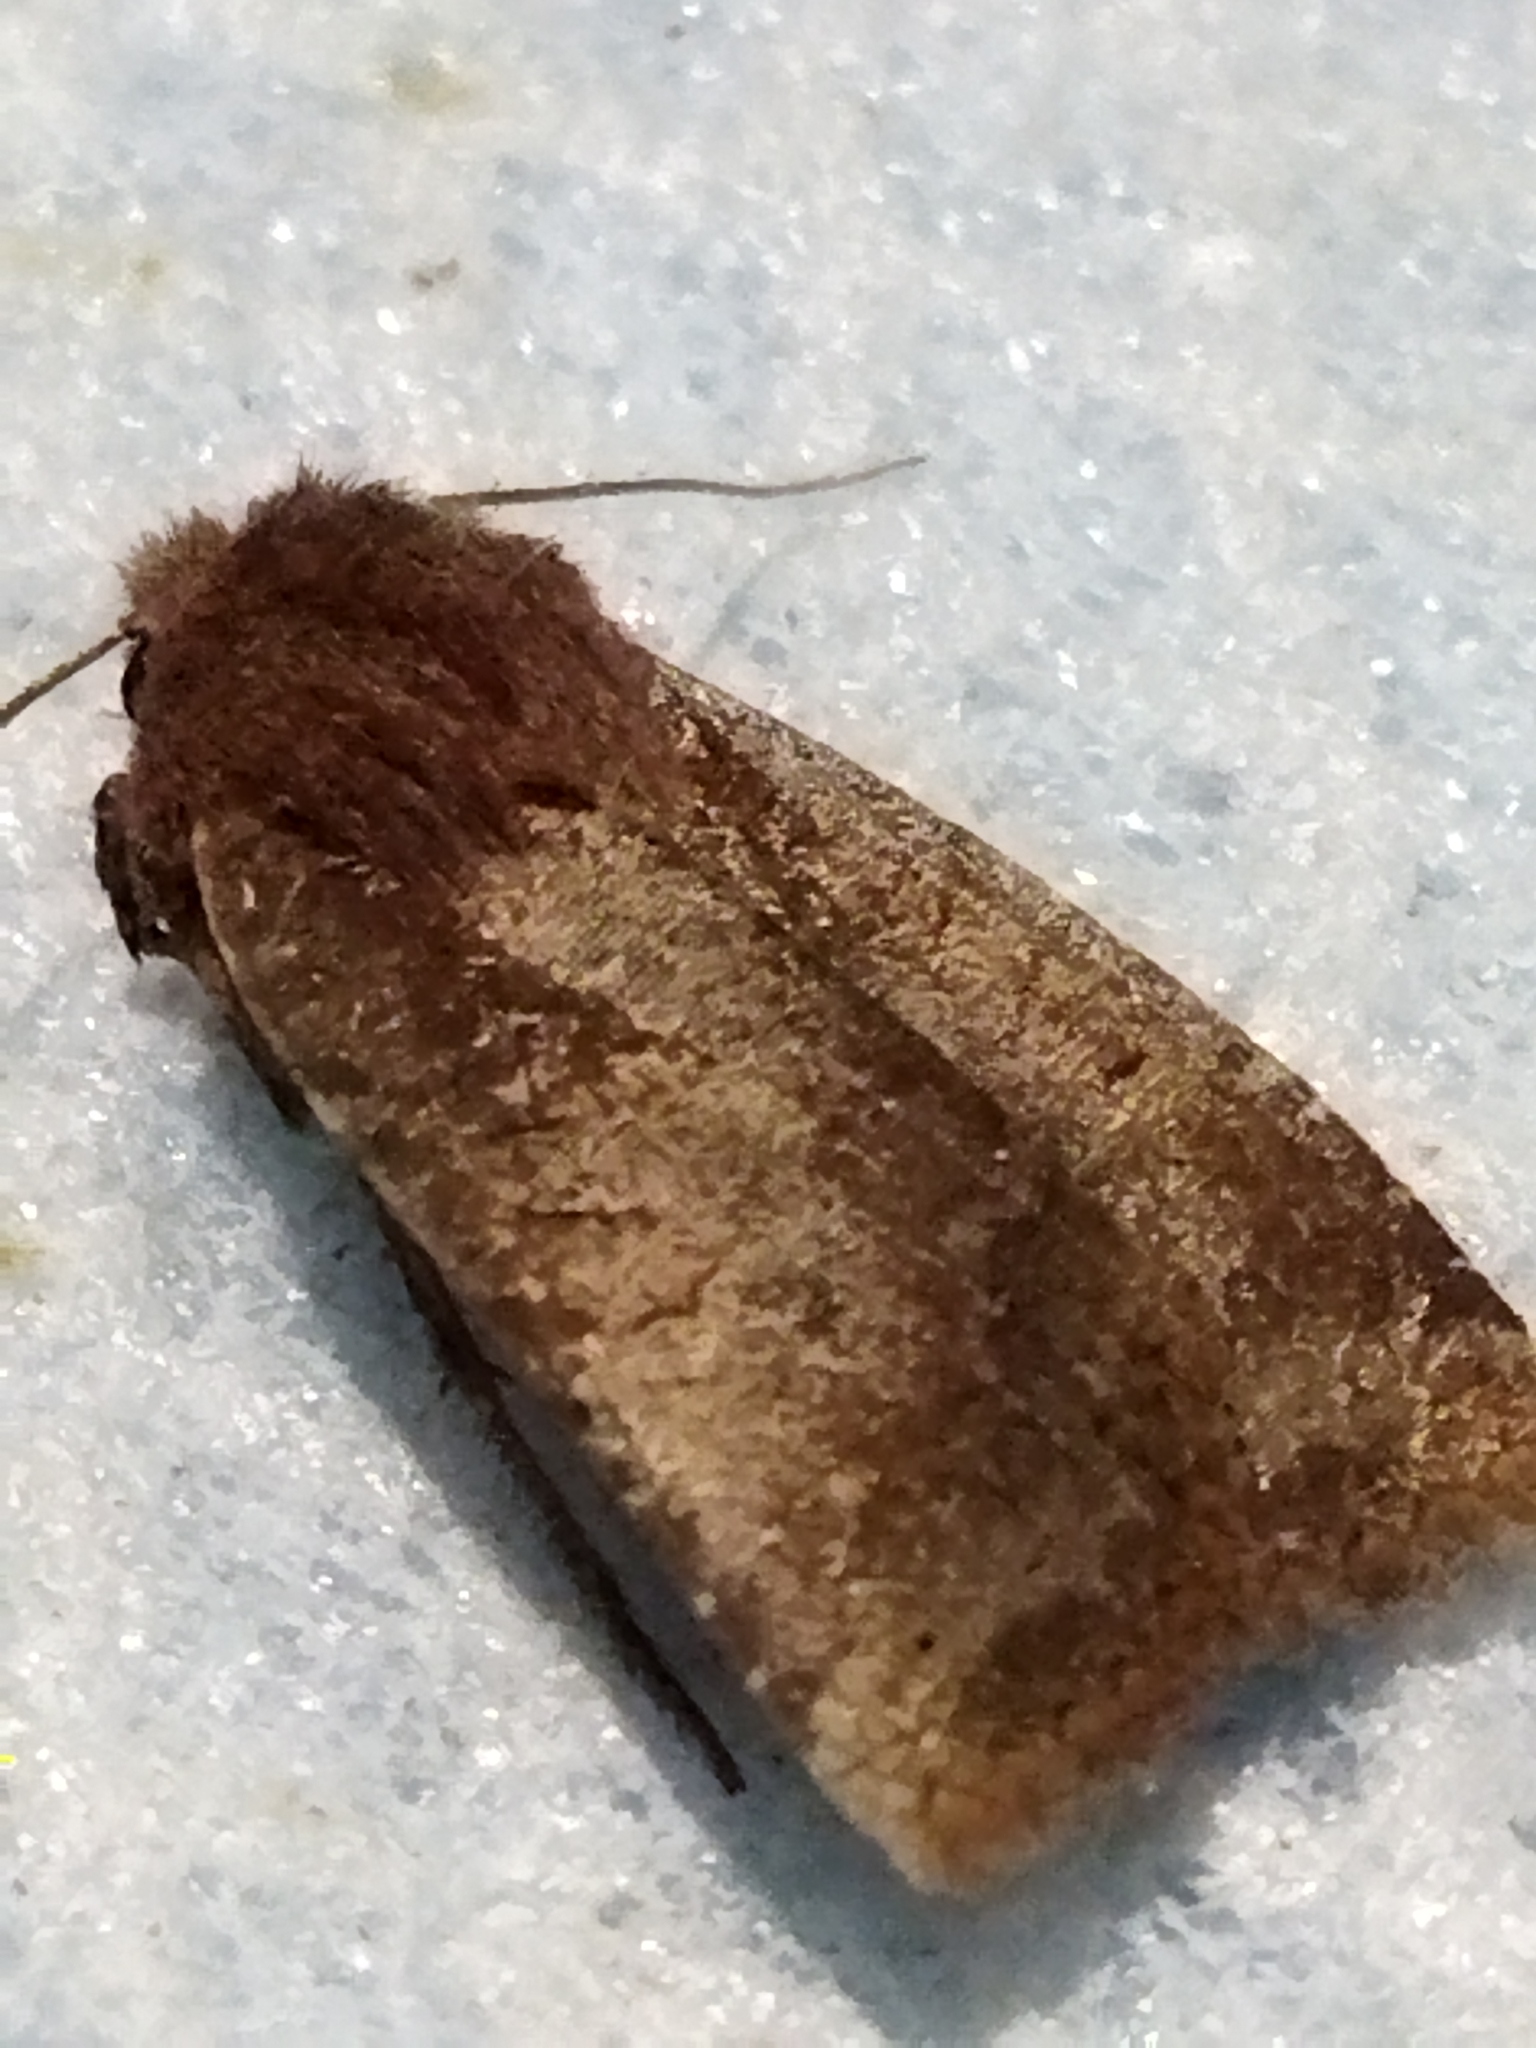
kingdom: Animalia
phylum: Arthropoda
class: Insecta
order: Lepidoptera
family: Noctuidae
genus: Conistra
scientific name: Conistra vaccinii
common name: Chestnut
